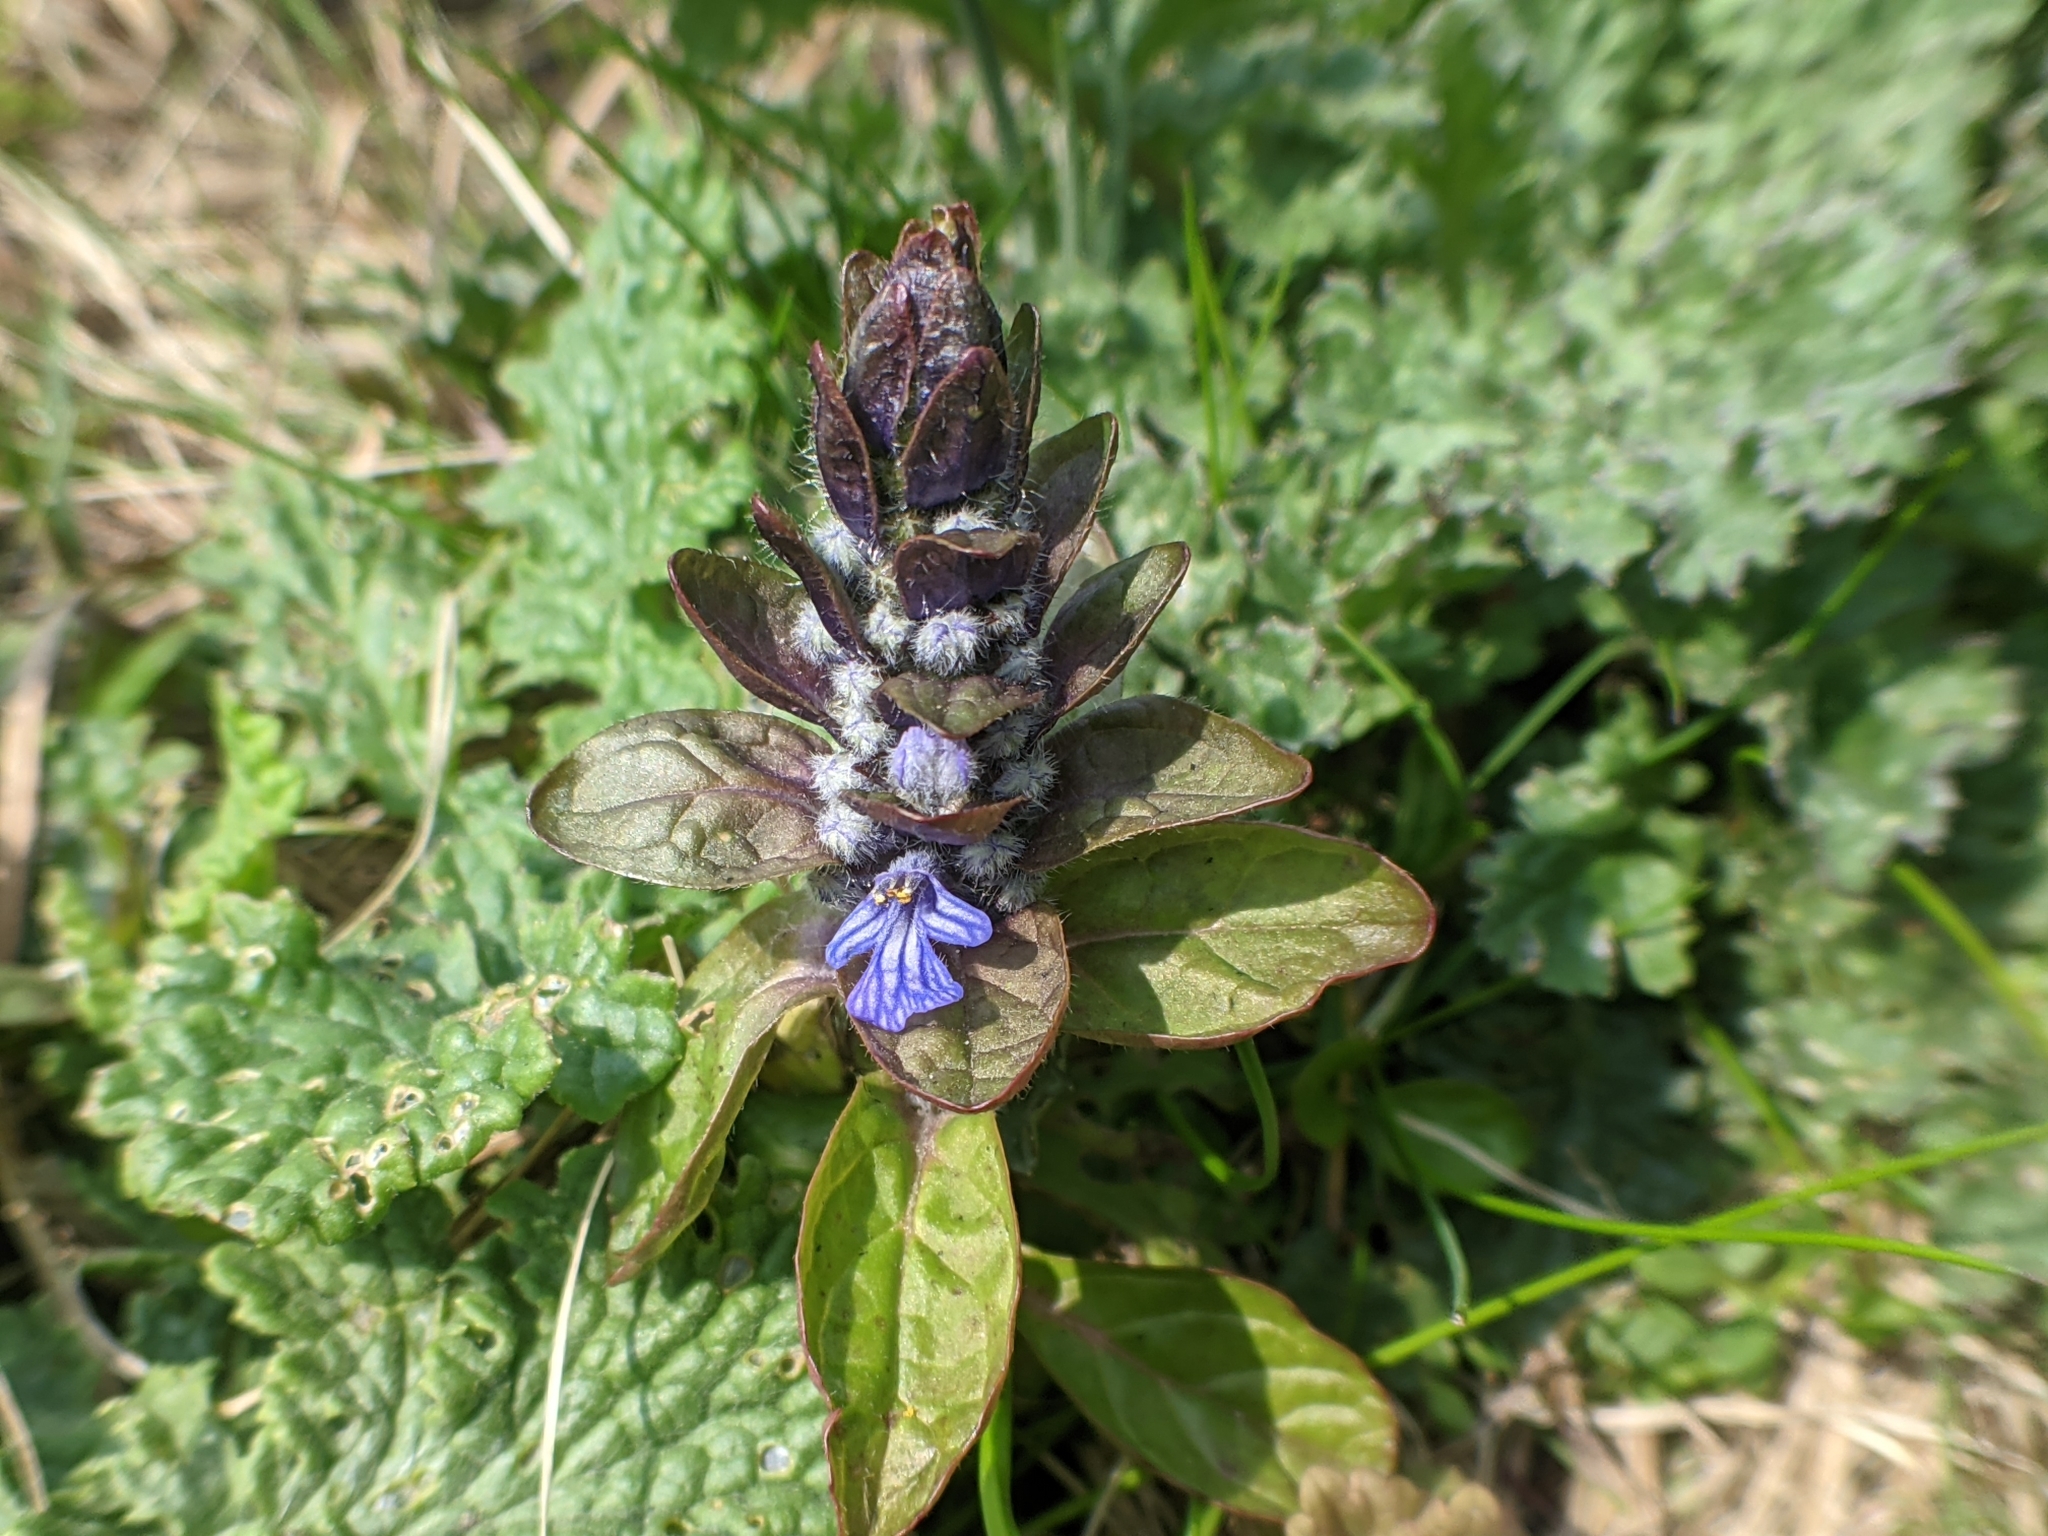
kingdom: Plantae
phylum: Tracheophyta
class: Magnoliopsida
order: Lamiales
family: Lamiaceae
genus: Ajuga
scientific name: Ajuga reptans
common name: Bugle
